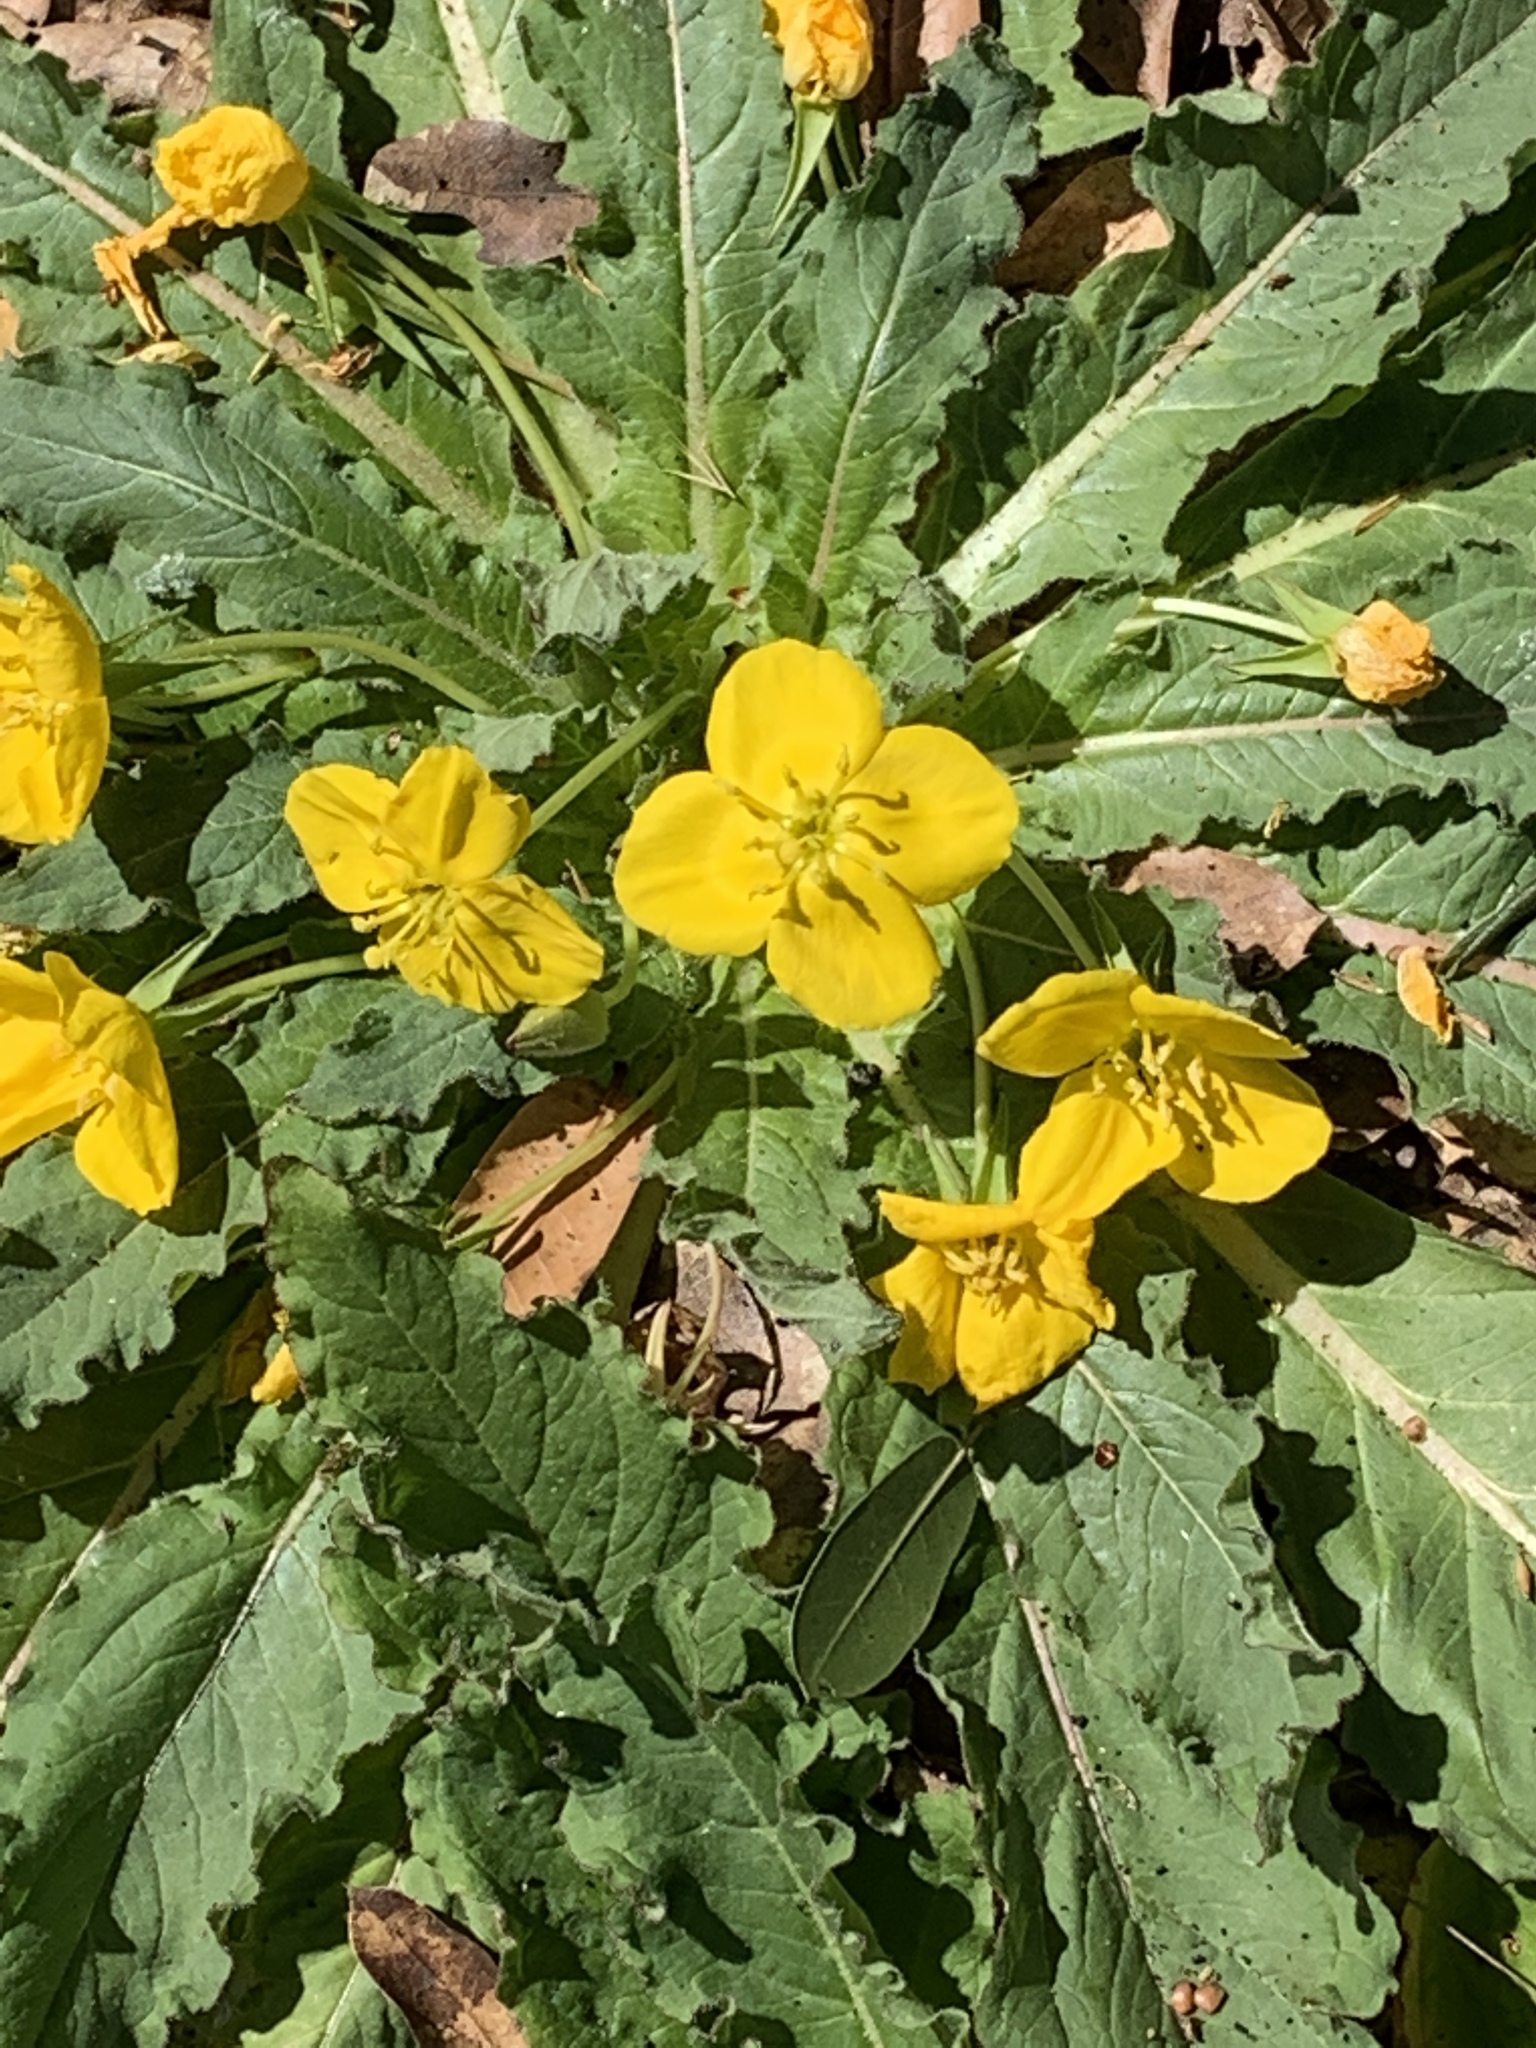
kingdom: Plantae
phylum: Tracheophyta
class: Magnoliopsida
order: Myrtales
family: Onagraceae
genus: Taraxia
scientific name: Taraxia ovata
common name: Goldeneggs
